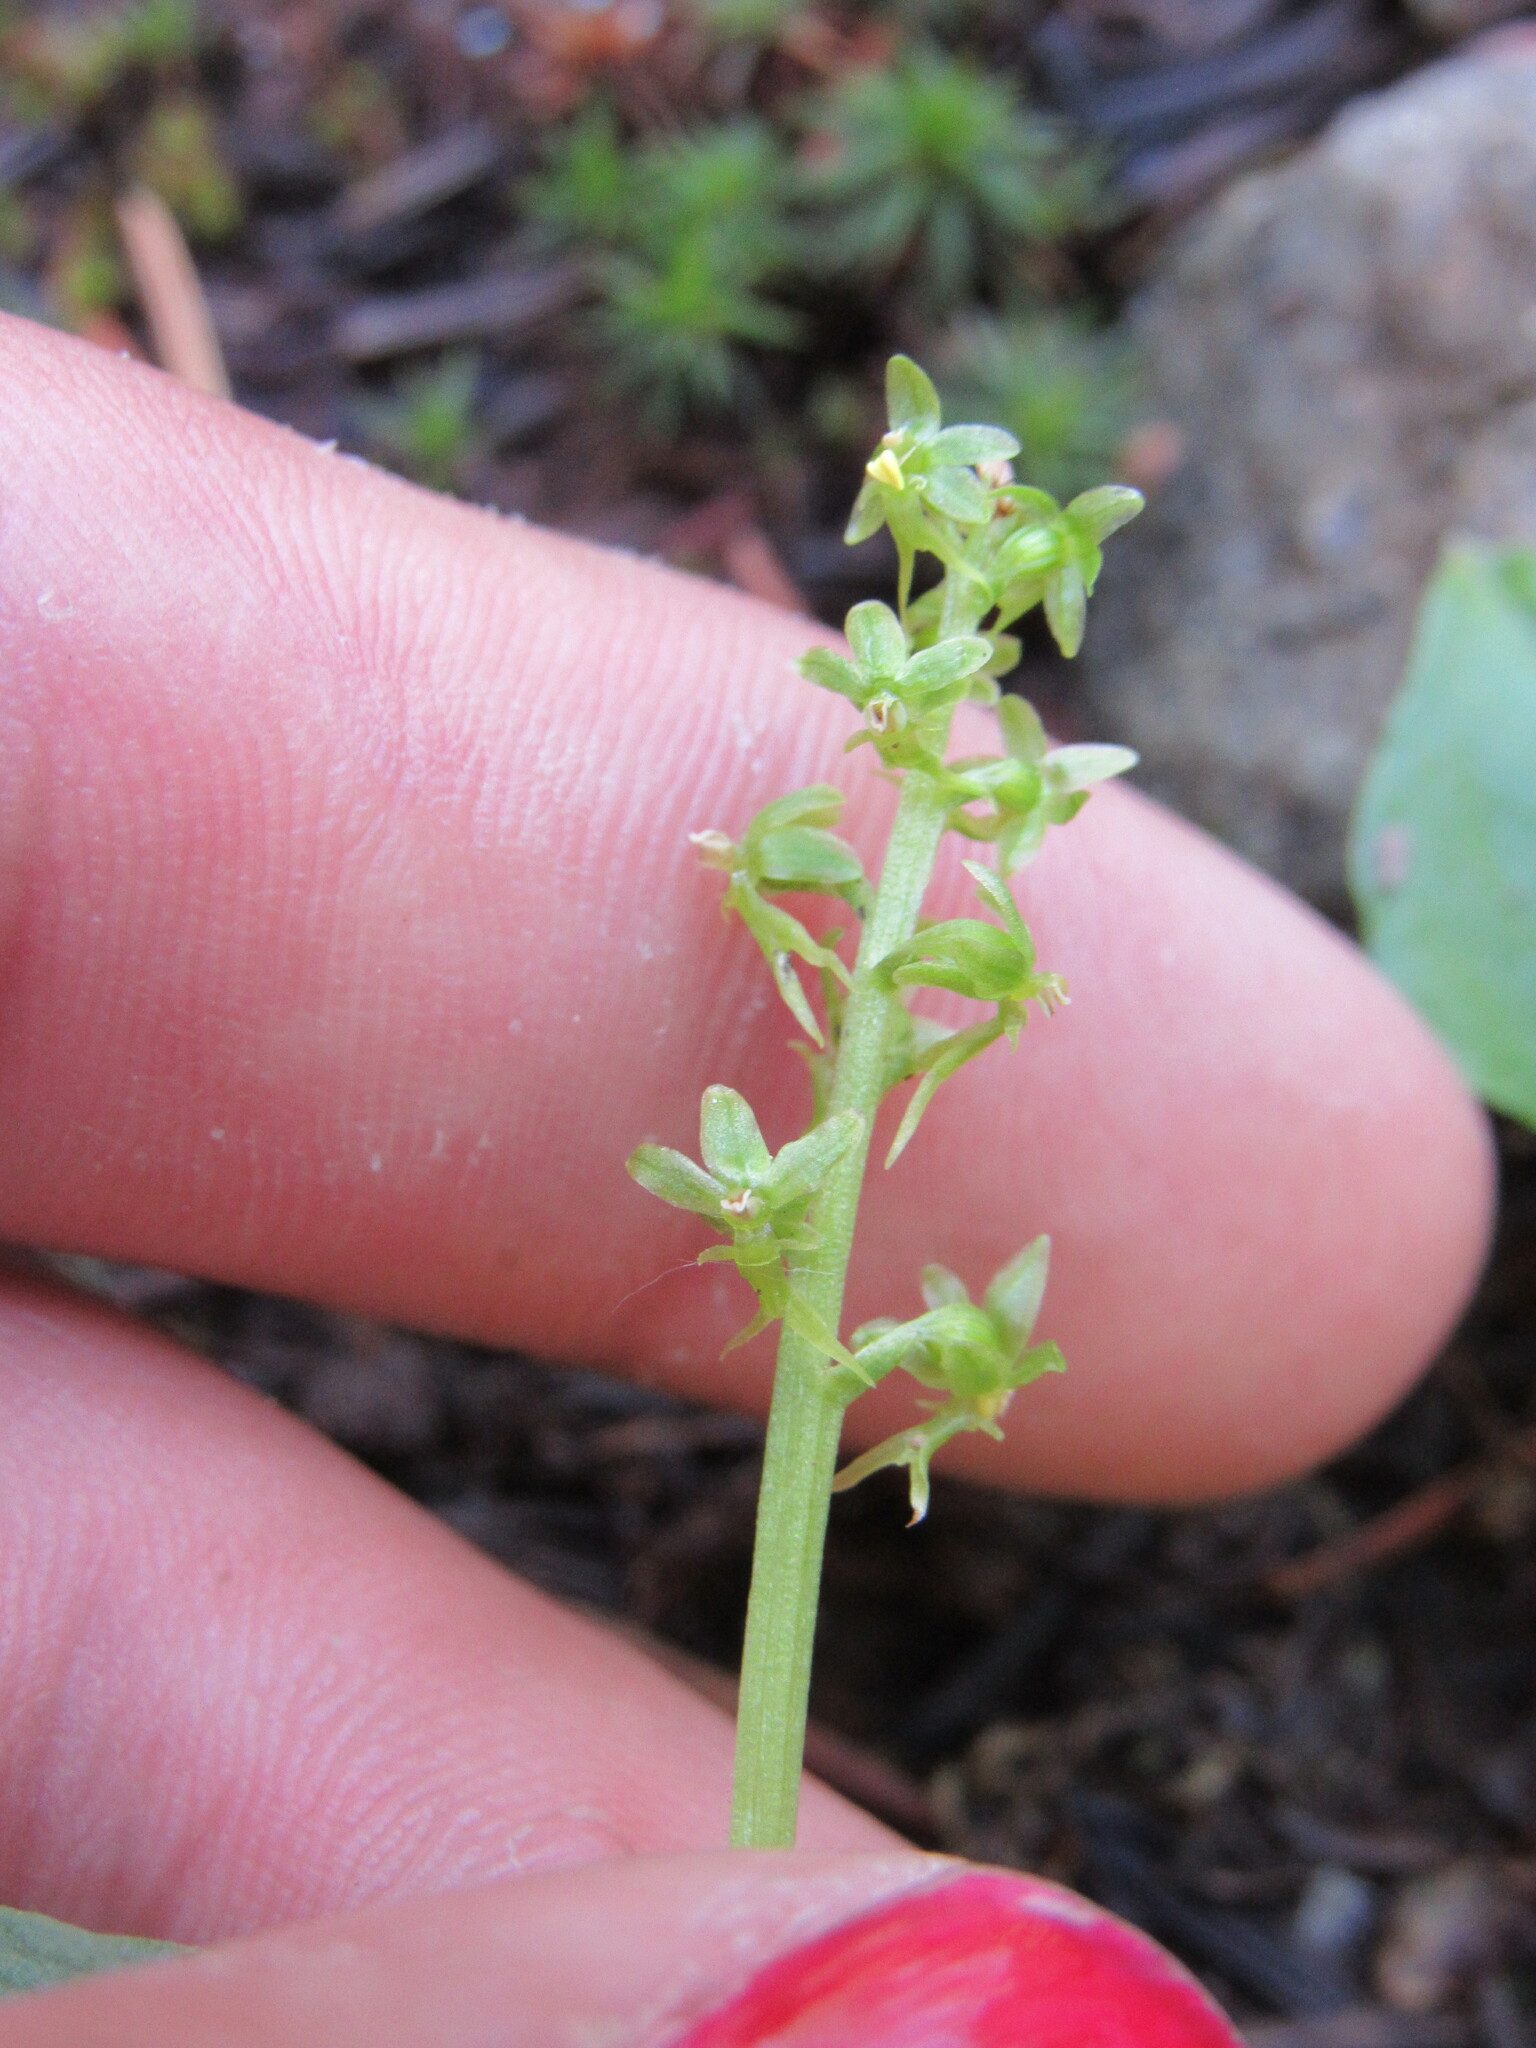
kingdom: Plantae
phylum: Tracheophyta
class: Liliopsida
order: Asparagales
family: Orchidaceae
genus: Neottia
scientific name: Neottia cordata
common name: Lesser twayblade
